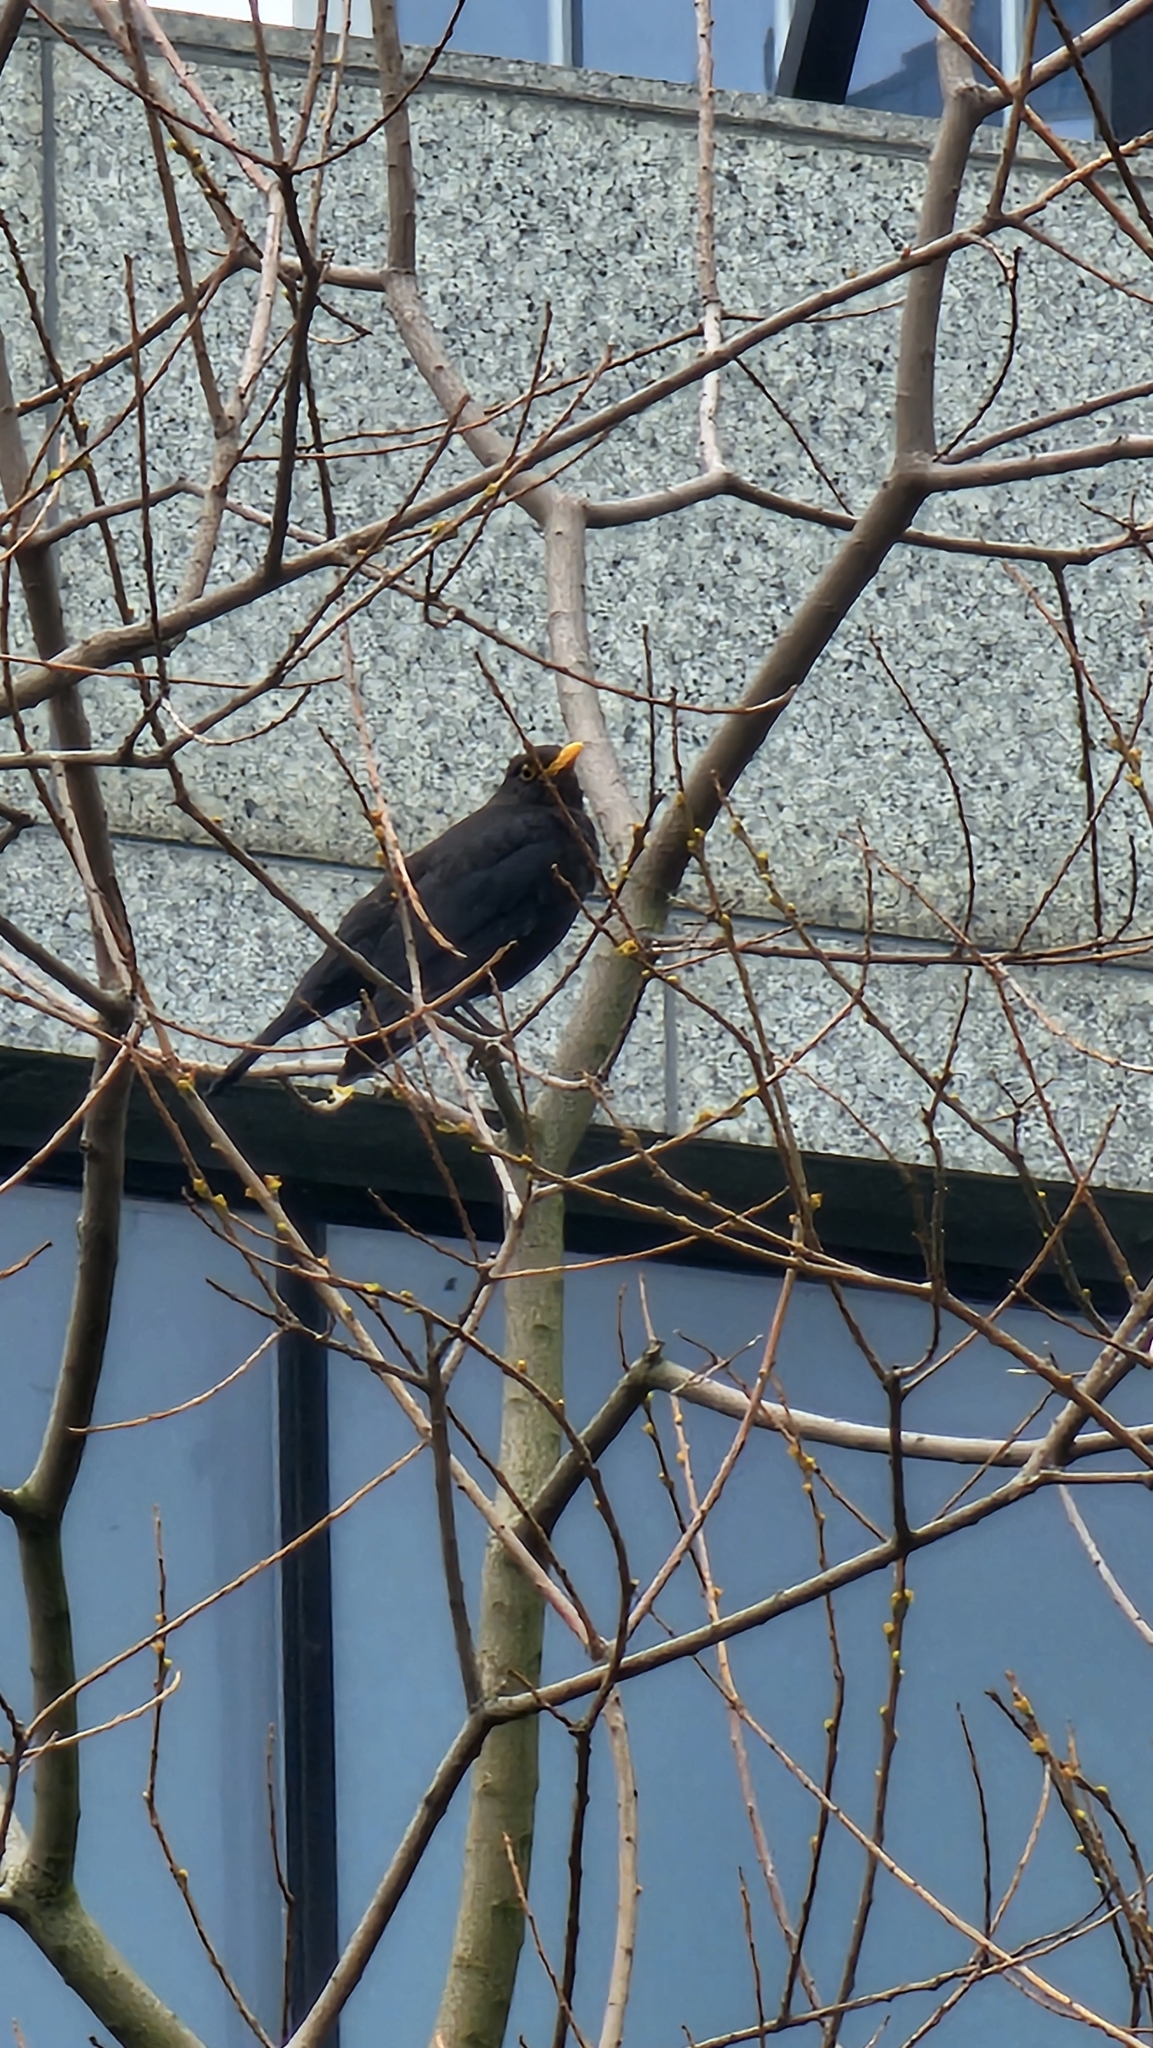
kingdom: Animalia
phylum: Chordata
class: Aves
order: Passeriformes
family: Turdidae
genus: Turdus
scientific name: Turdus mandarinus
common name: Chinese blackbird
